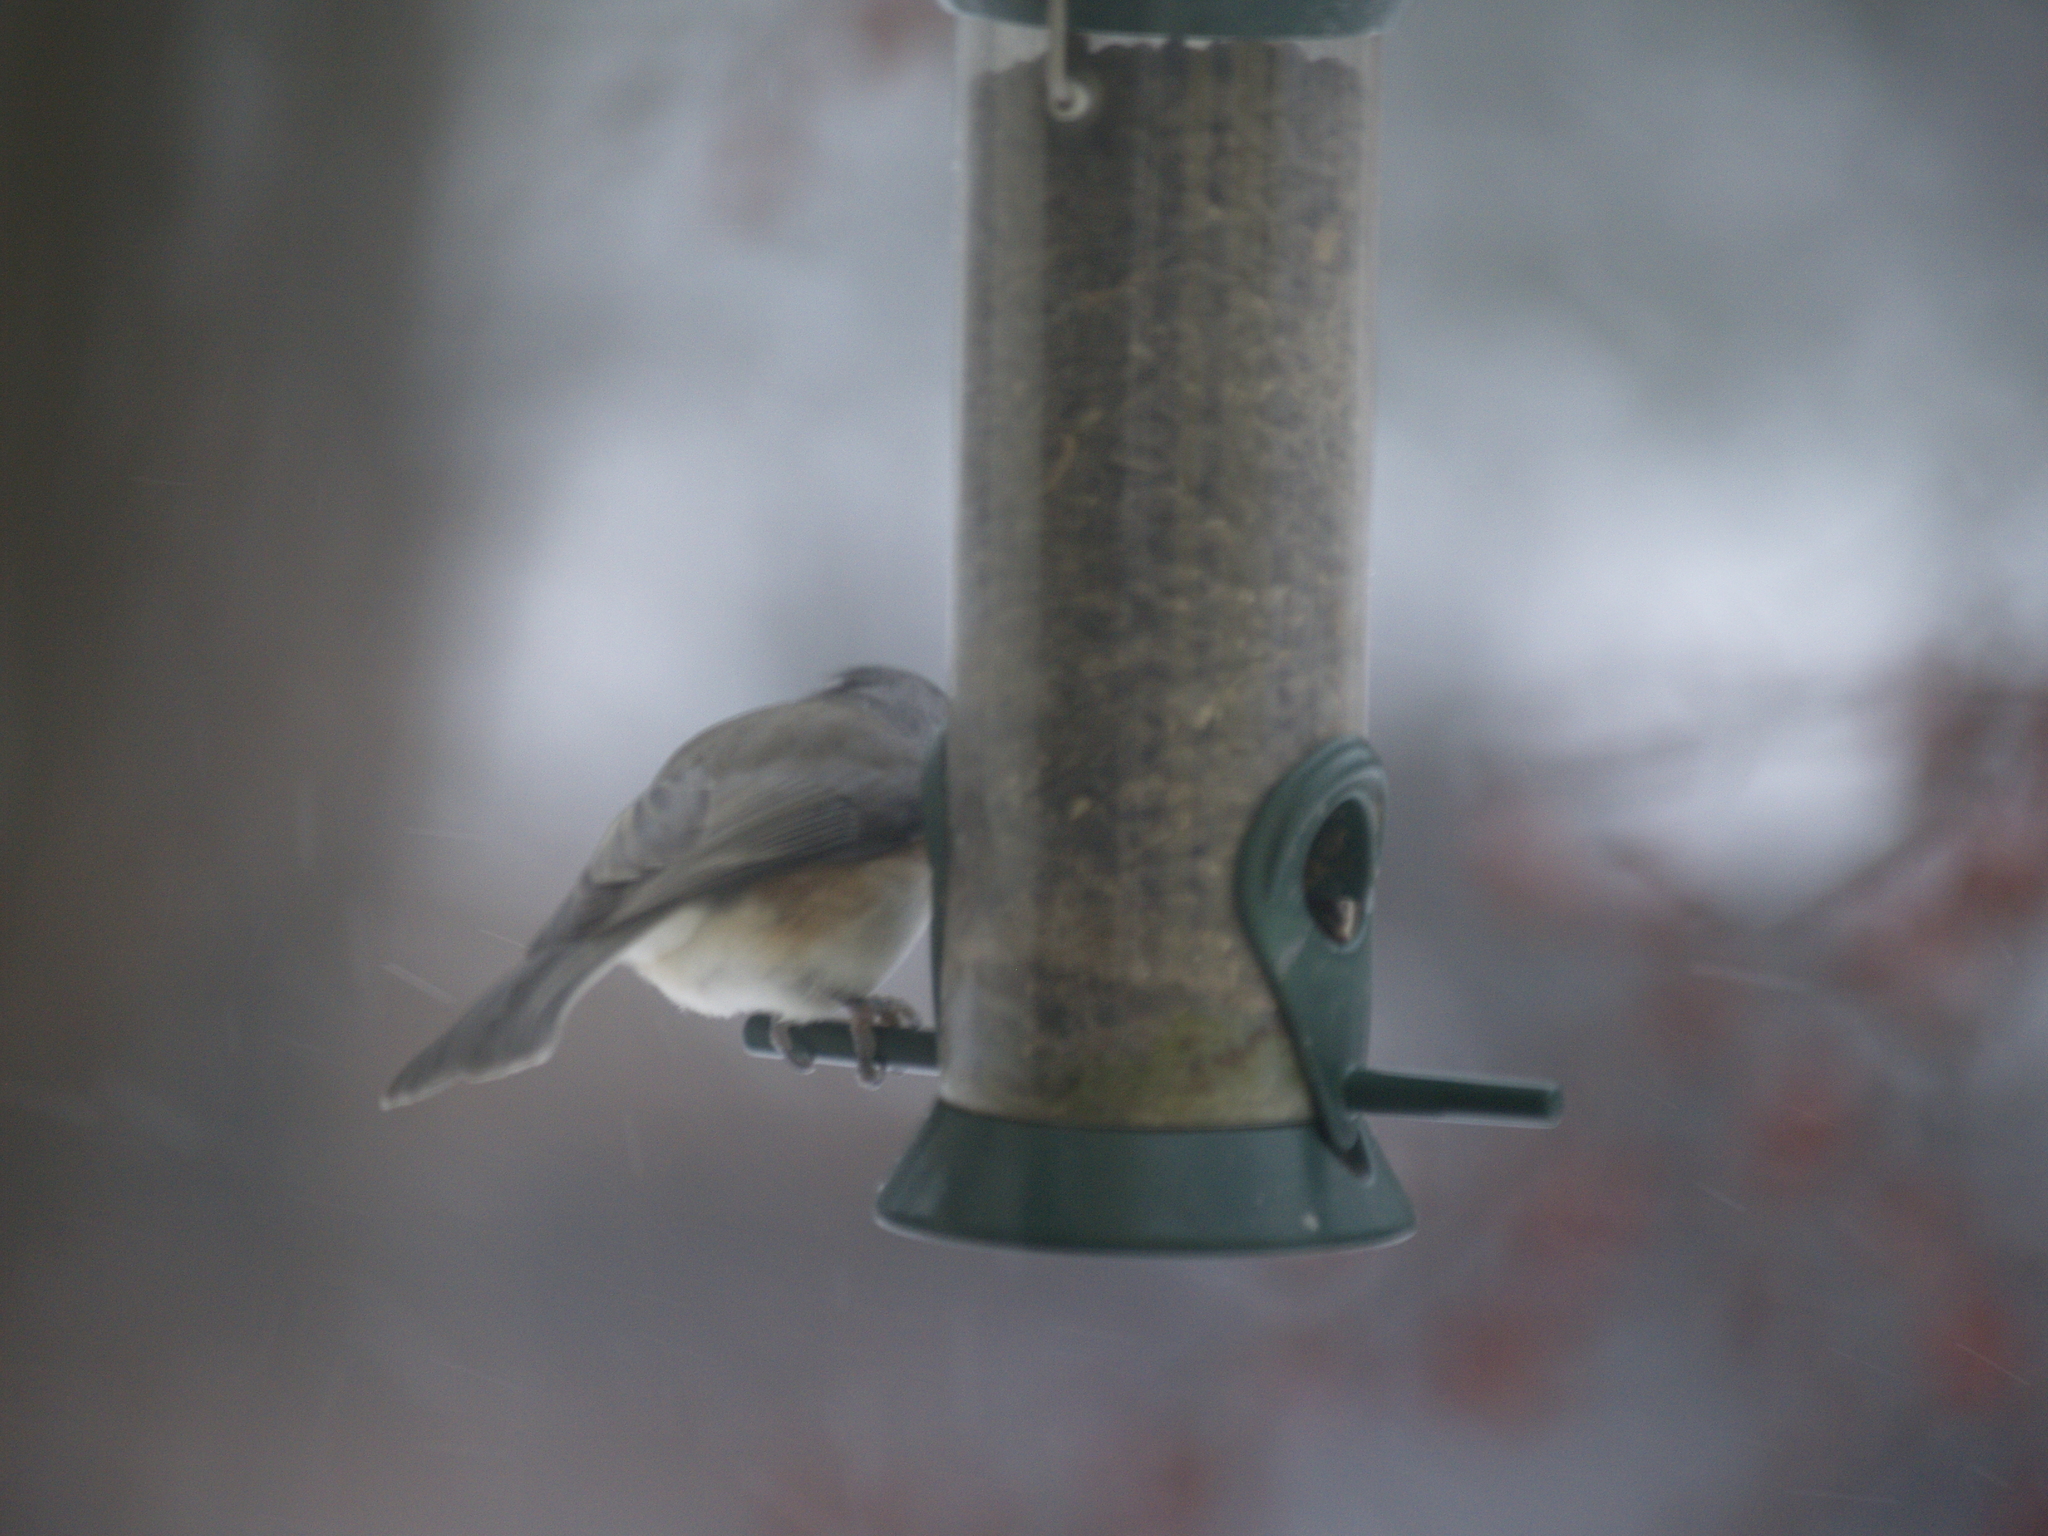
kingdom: Animalia
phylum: Chordata
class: Aves
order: Passeriformes
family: Paridae
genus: Baeolophus
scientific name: Baeolophus bicolor
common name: Tufted titmouse
